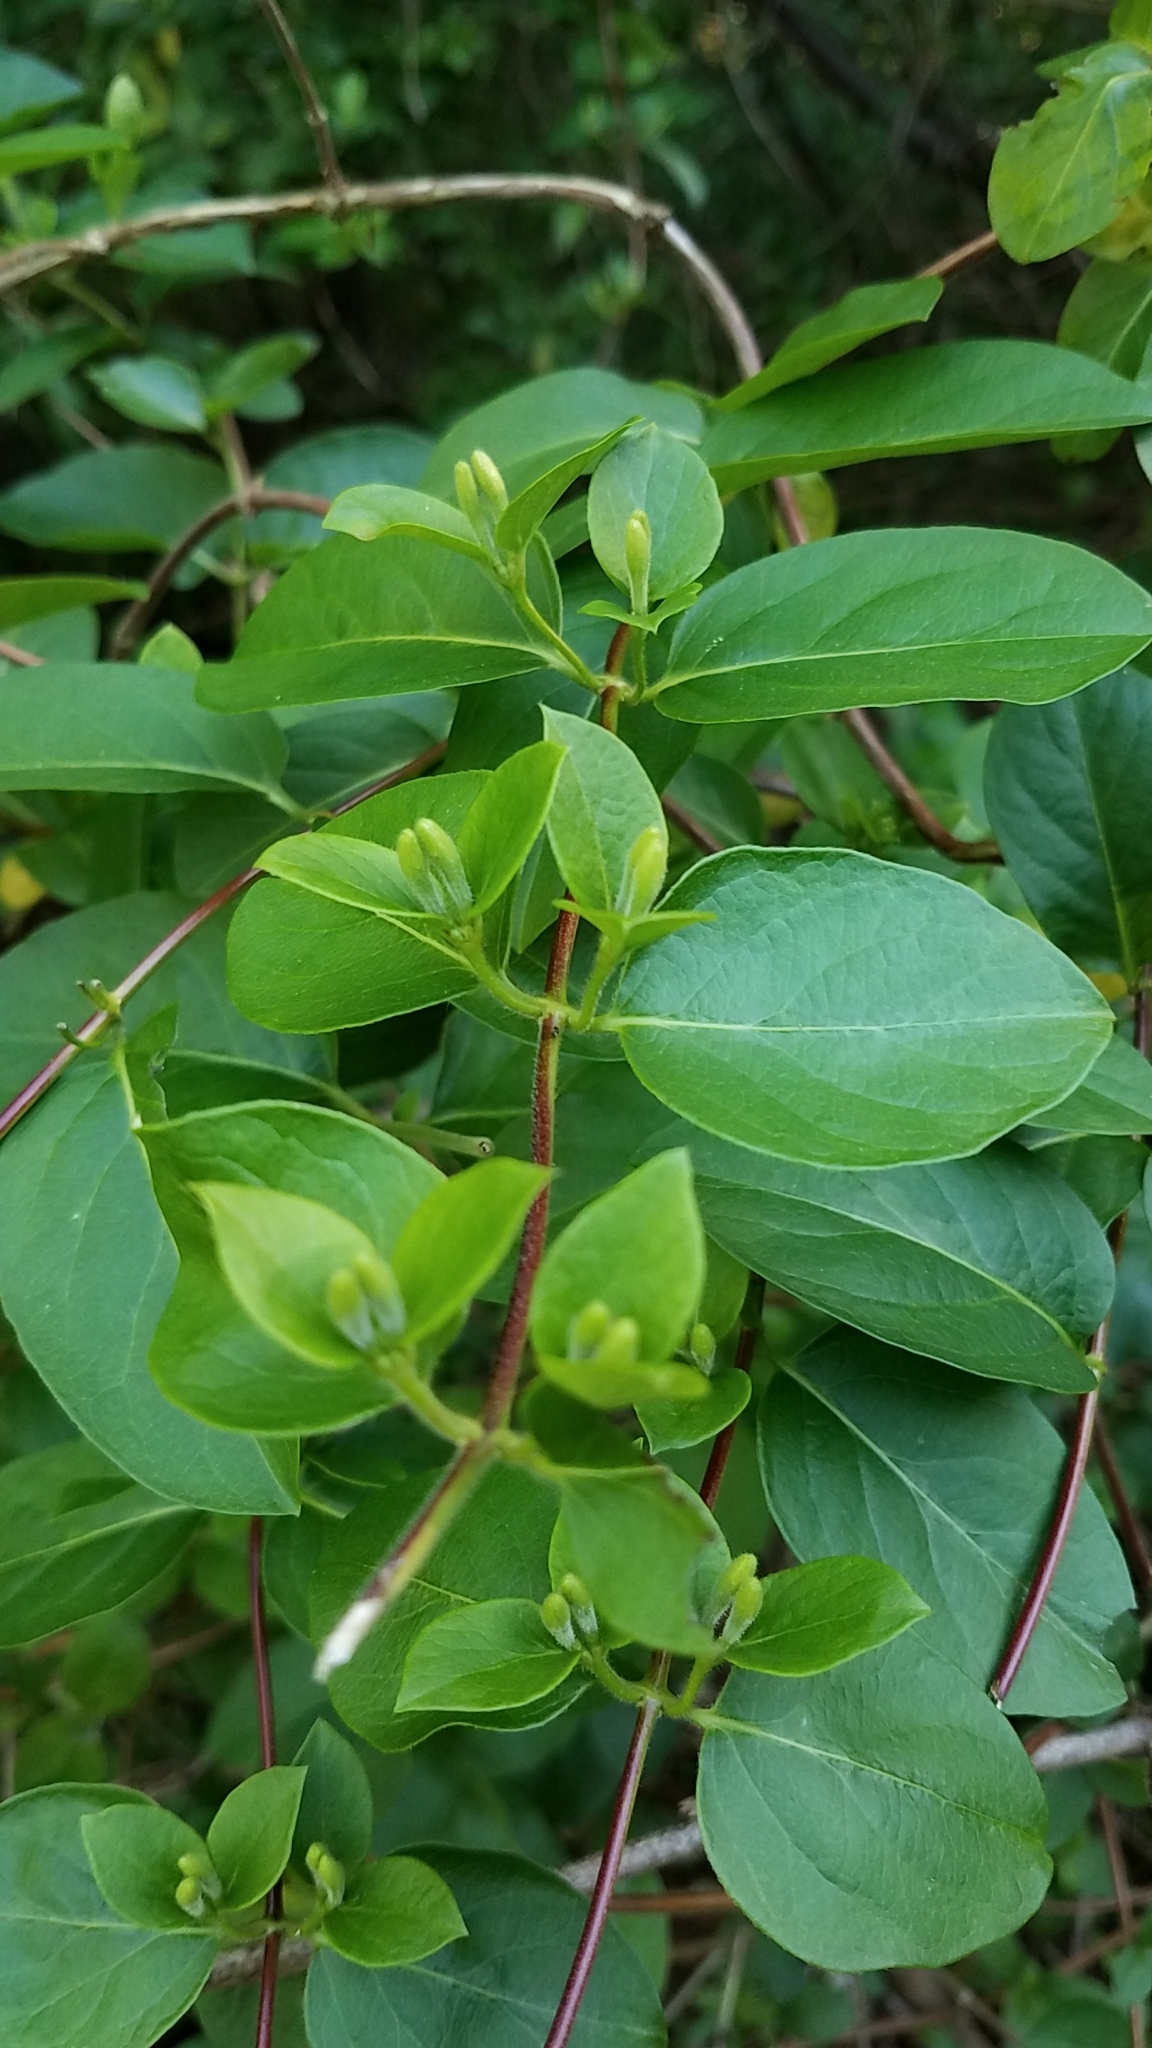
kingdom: Plantae
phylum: Tracheophyta
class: Magnoliopsida
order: Dipsacales
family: Caprifoliaceae
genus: Lonicera
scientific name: Lonicera japonica
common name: Japanese honeysuckle
